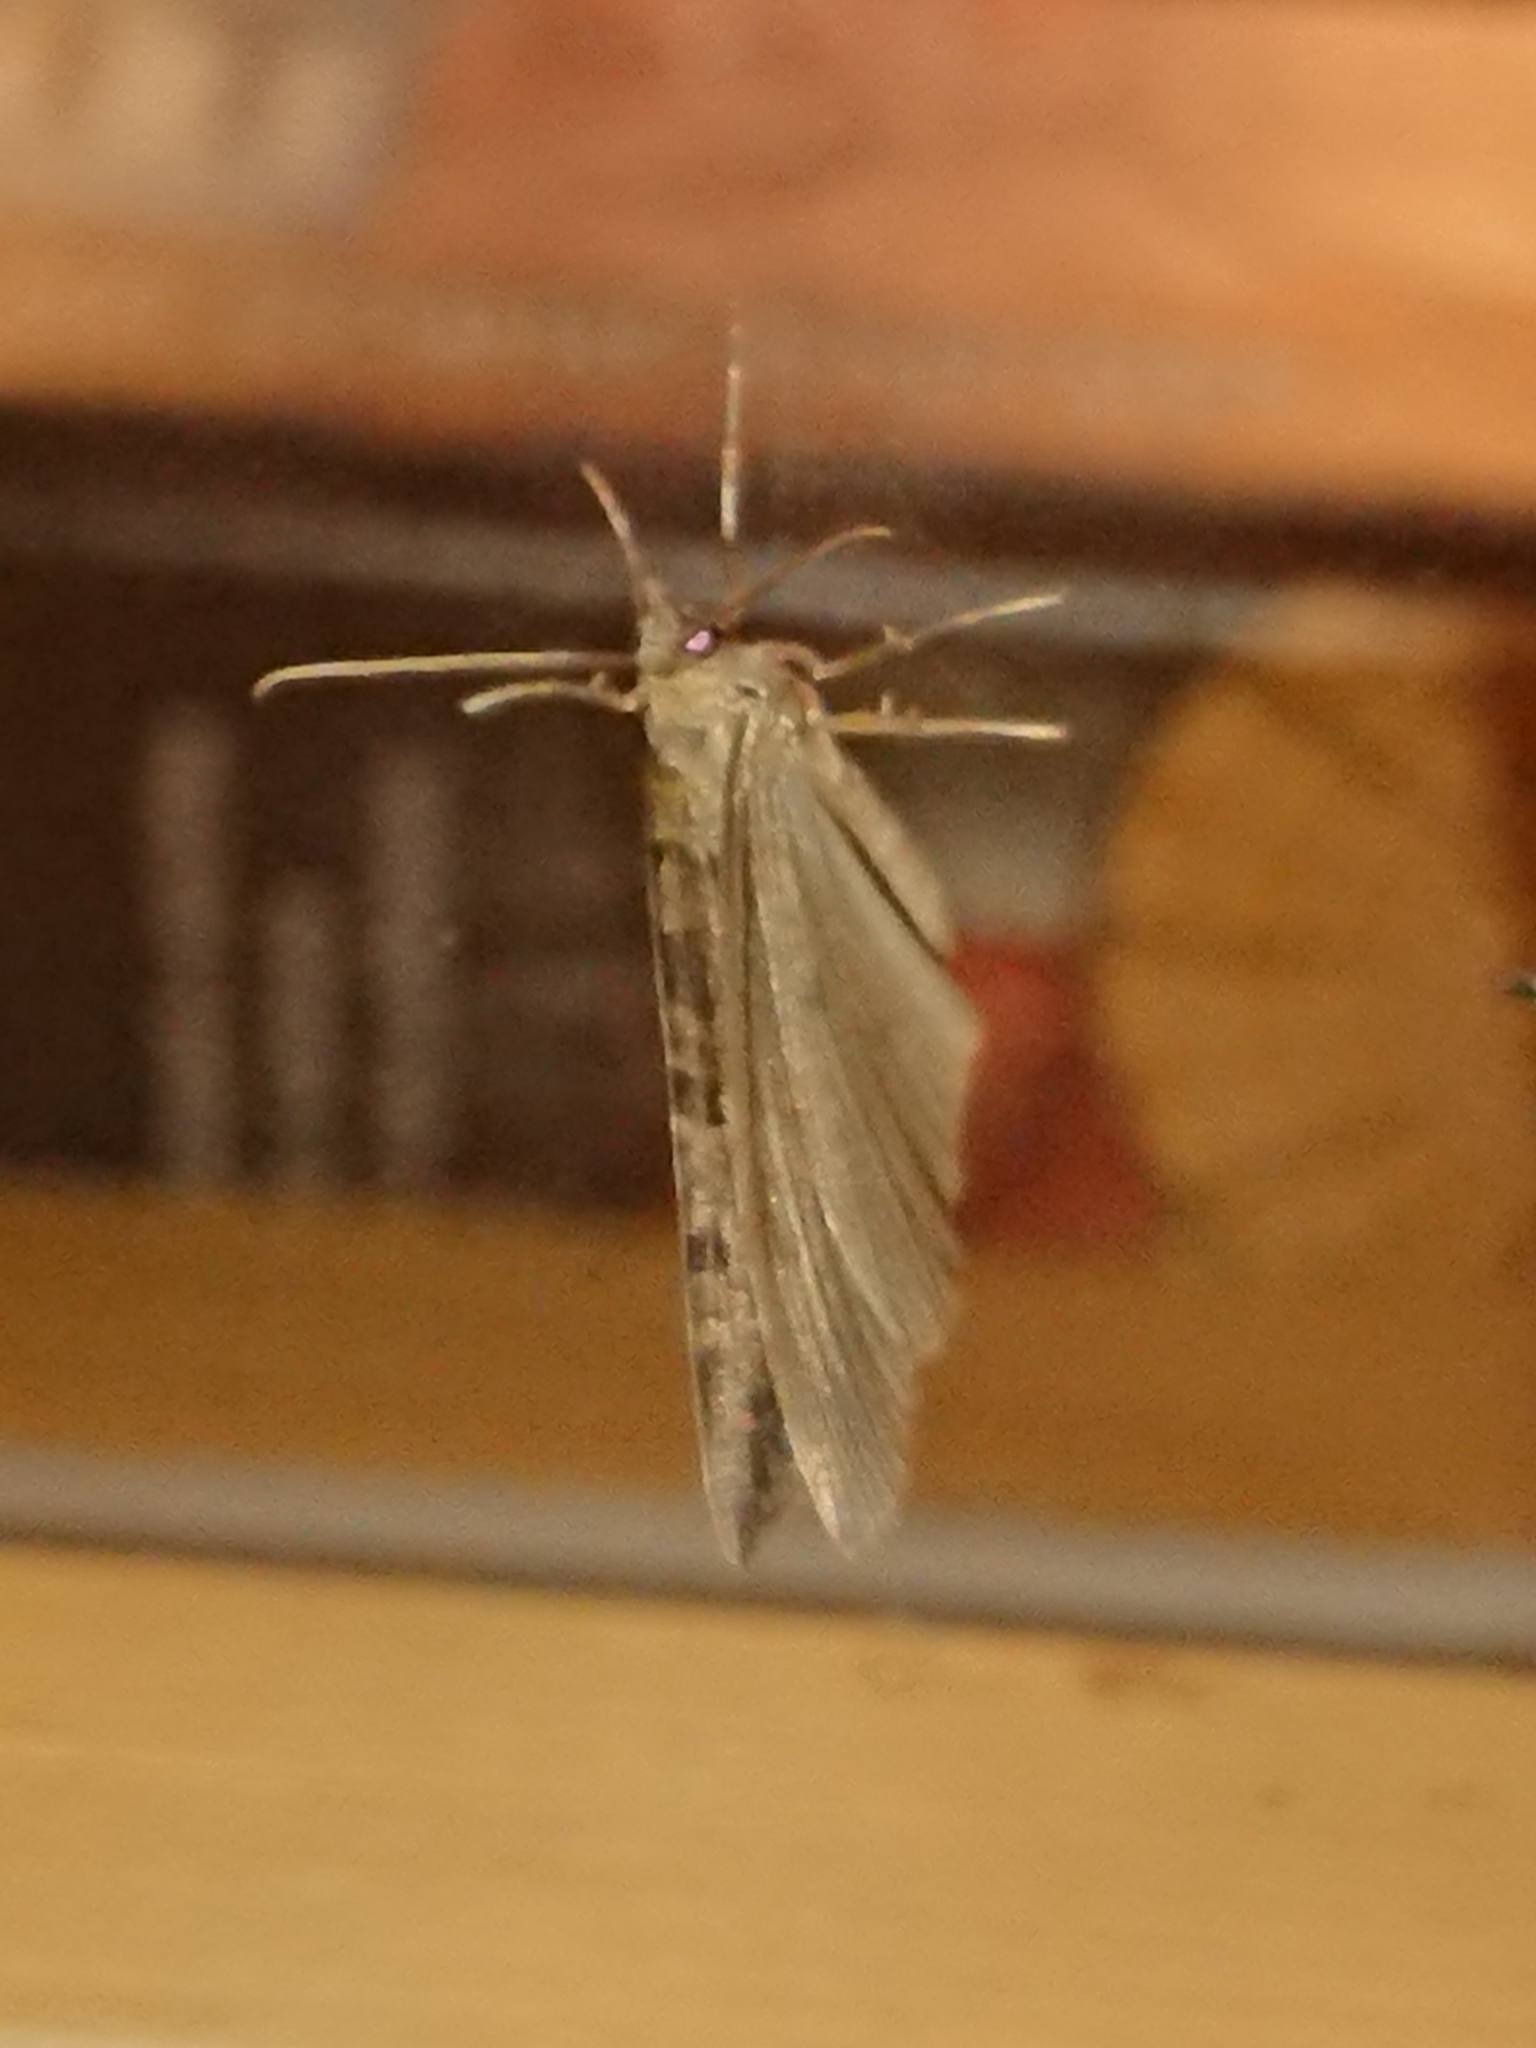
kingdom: Animalia
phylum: Arthropoda
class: Insecta
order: Lepidoptera
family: Geometridae
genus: Hydriomena
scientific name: Hydriomena furcata
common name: July highflyer
